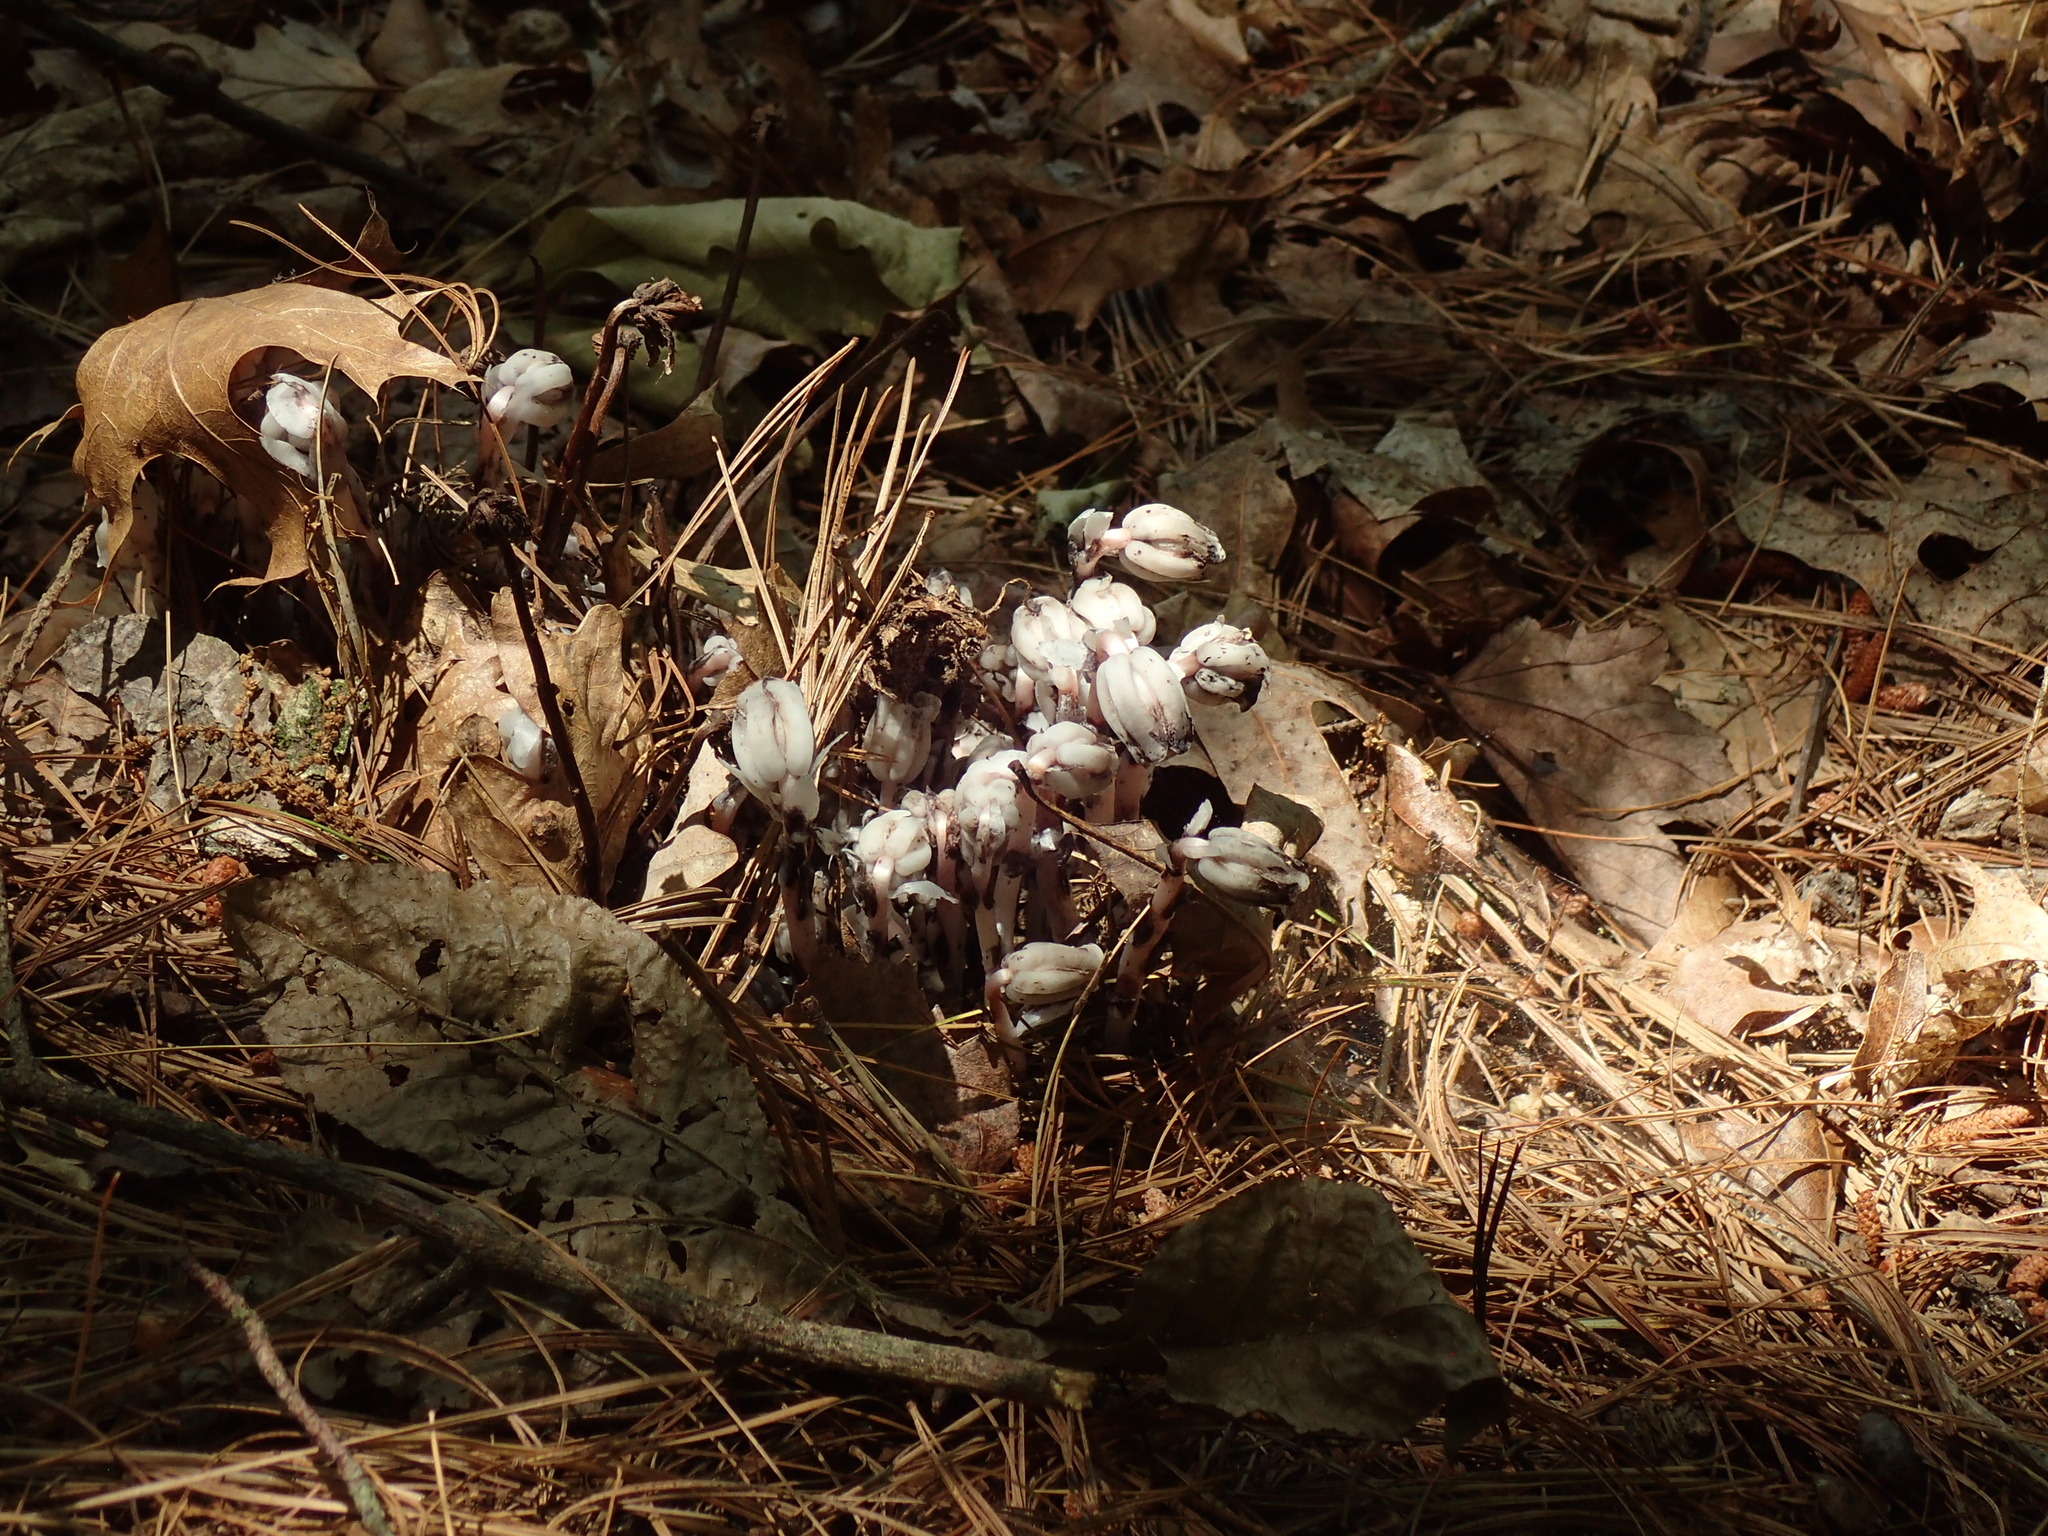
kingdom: Plantae
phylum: Tracheophyta
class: Magnoliopsida
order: Ericales
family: Ericaceae
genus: Monotropa
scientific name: Monotropa uniflora
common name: Convulsion root
